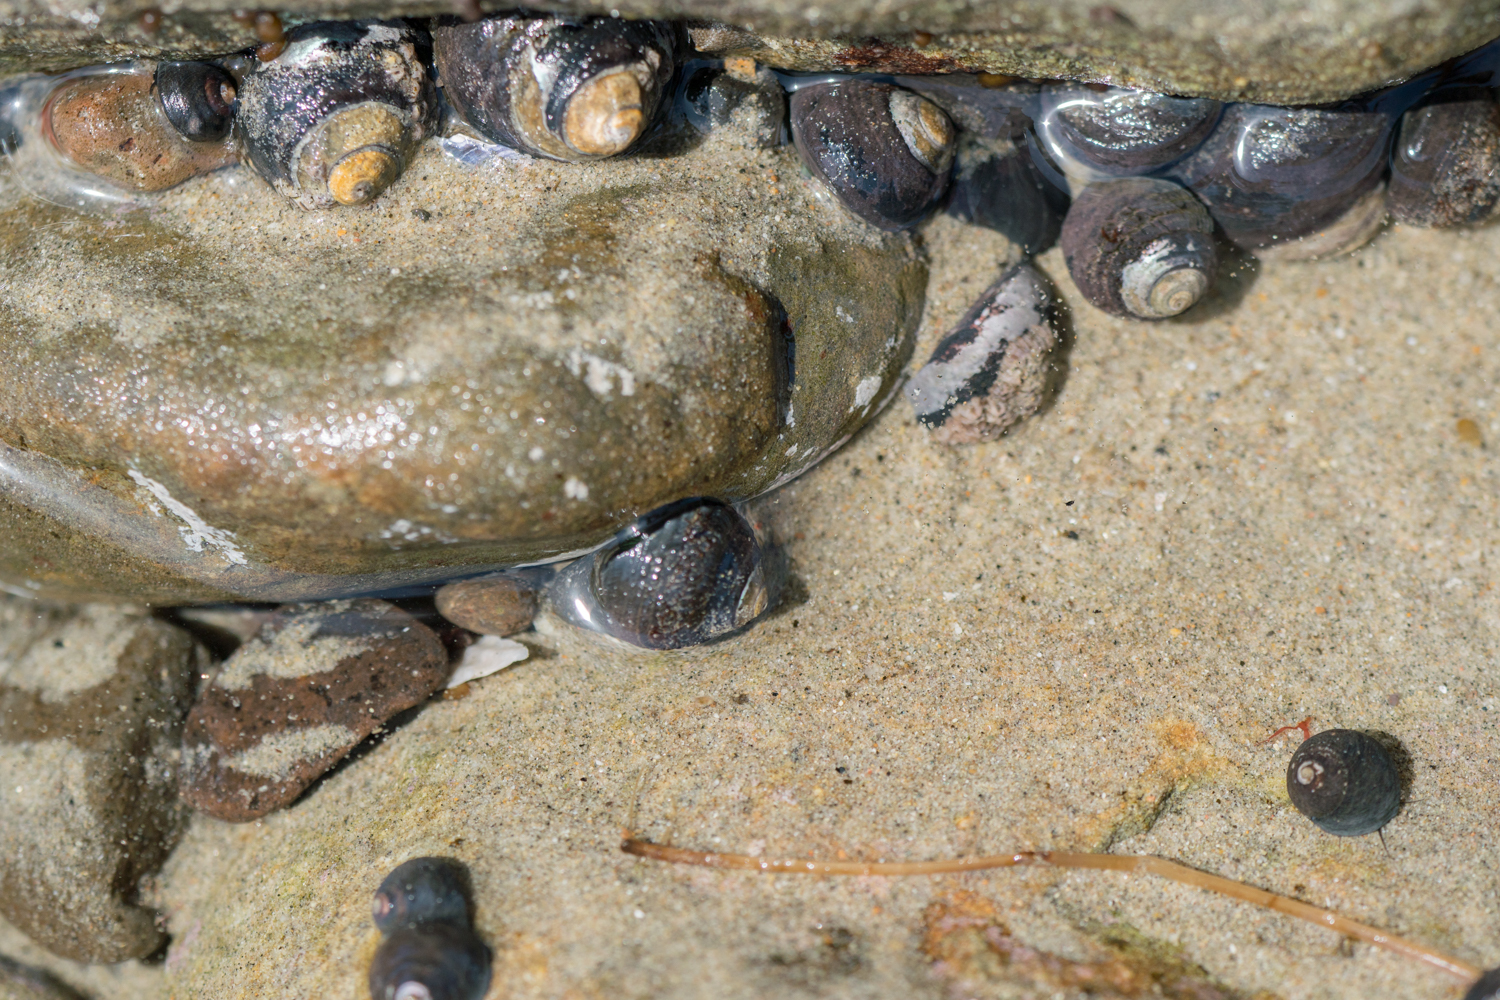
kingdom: Animalia
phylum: Mollusca
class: Gastropoda
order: Trochida
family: Tegulidae
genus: Tegula
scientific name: Tegula funebralis
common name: Black tegula
